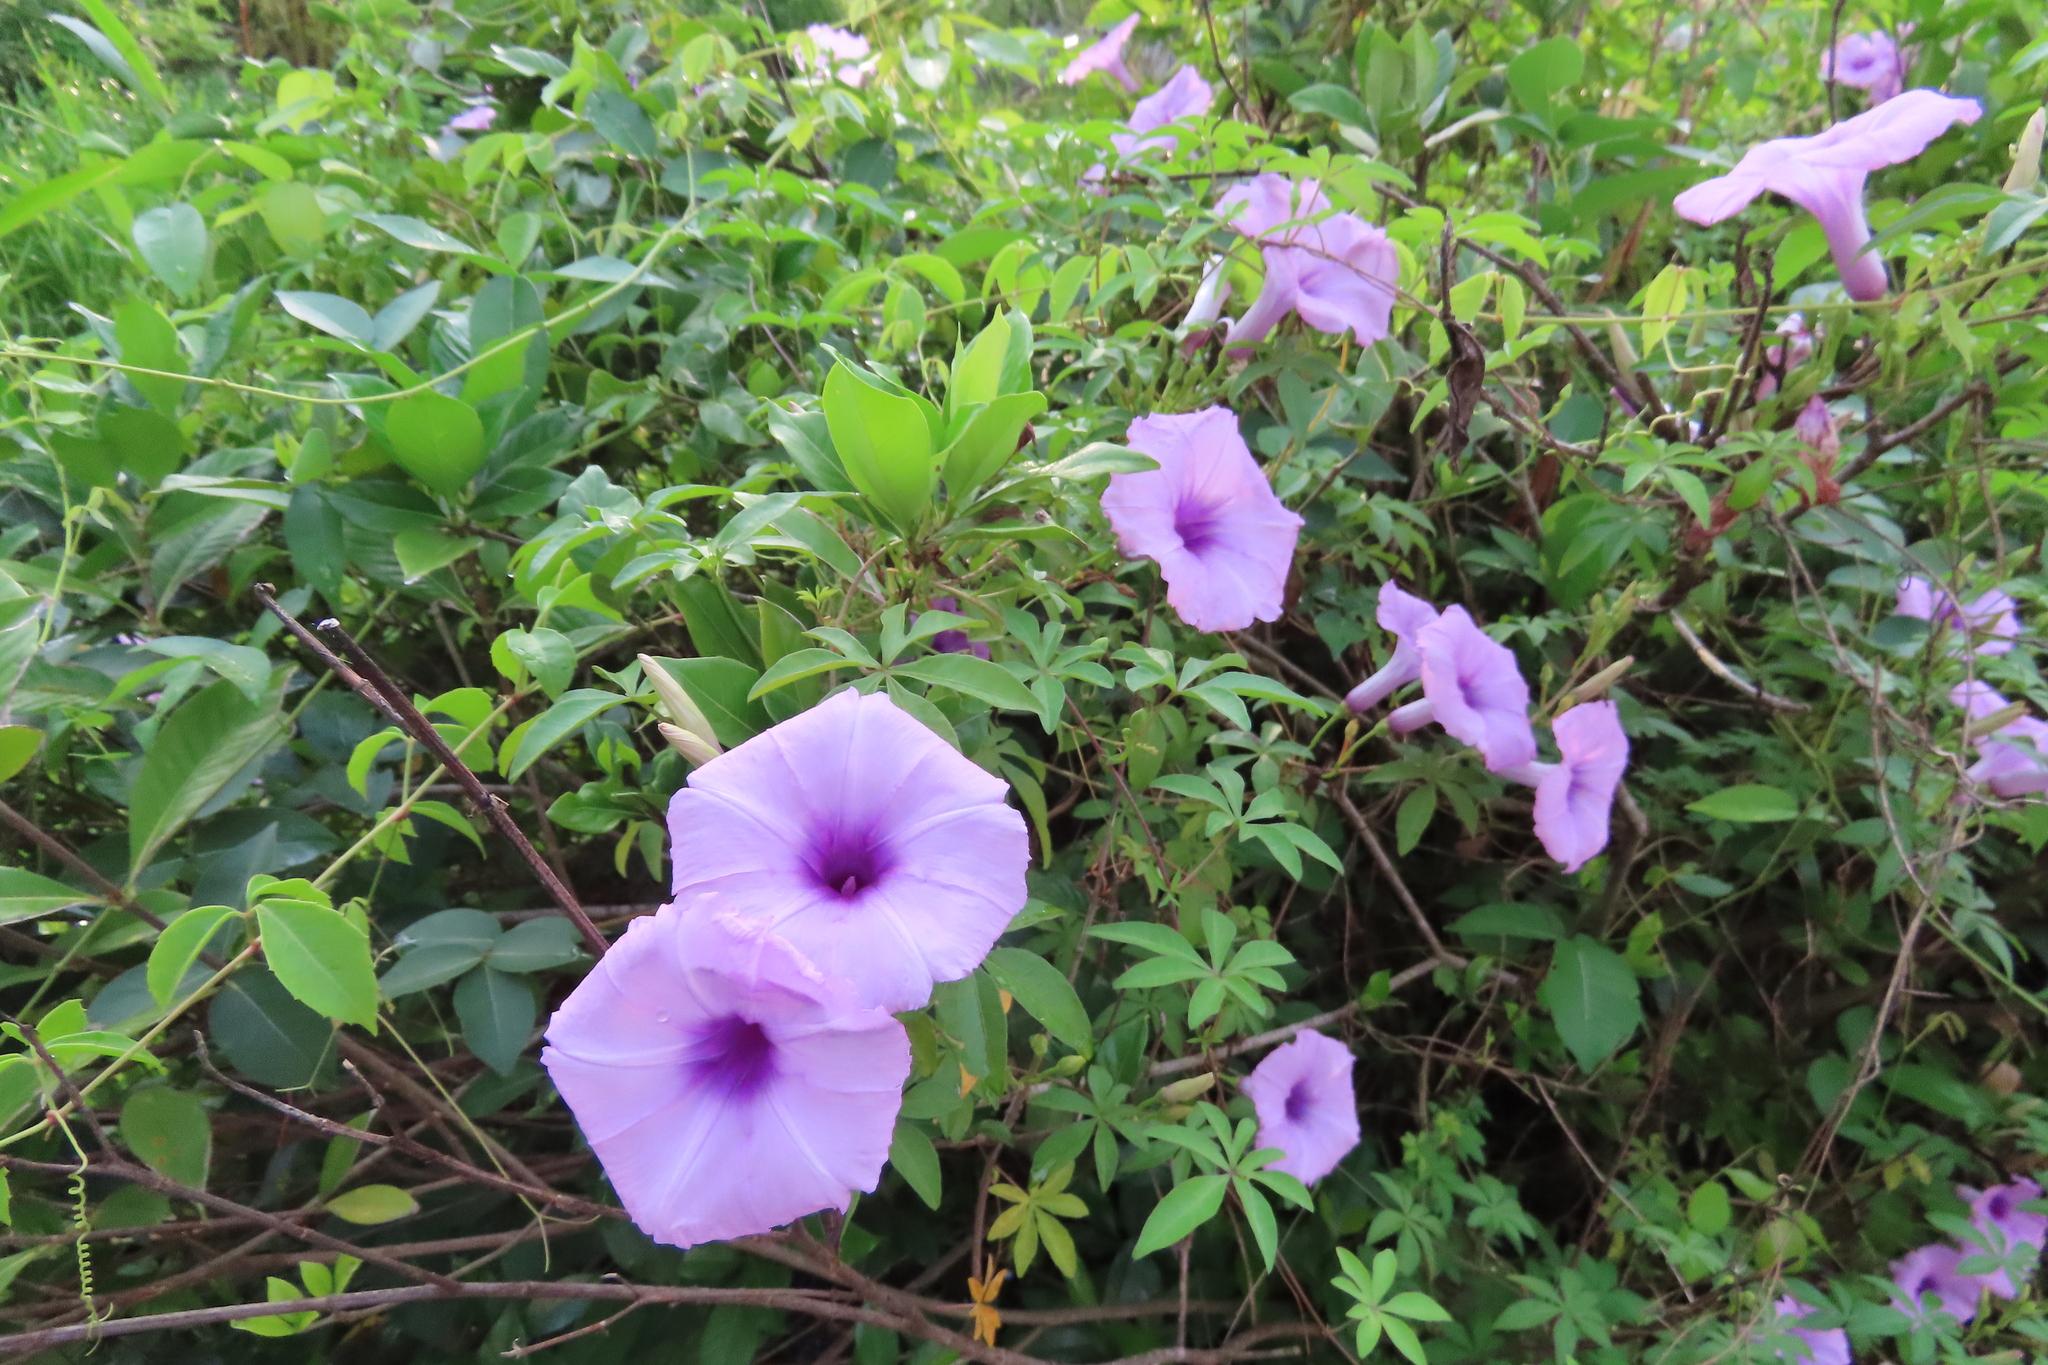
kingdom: Plantae
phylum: Tracheophyta
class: Magnoliopsida
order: Solanales
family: Convolvulaceae
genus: Ipomoea
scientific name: Ipomoea cairica
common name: Mile a minute vine
